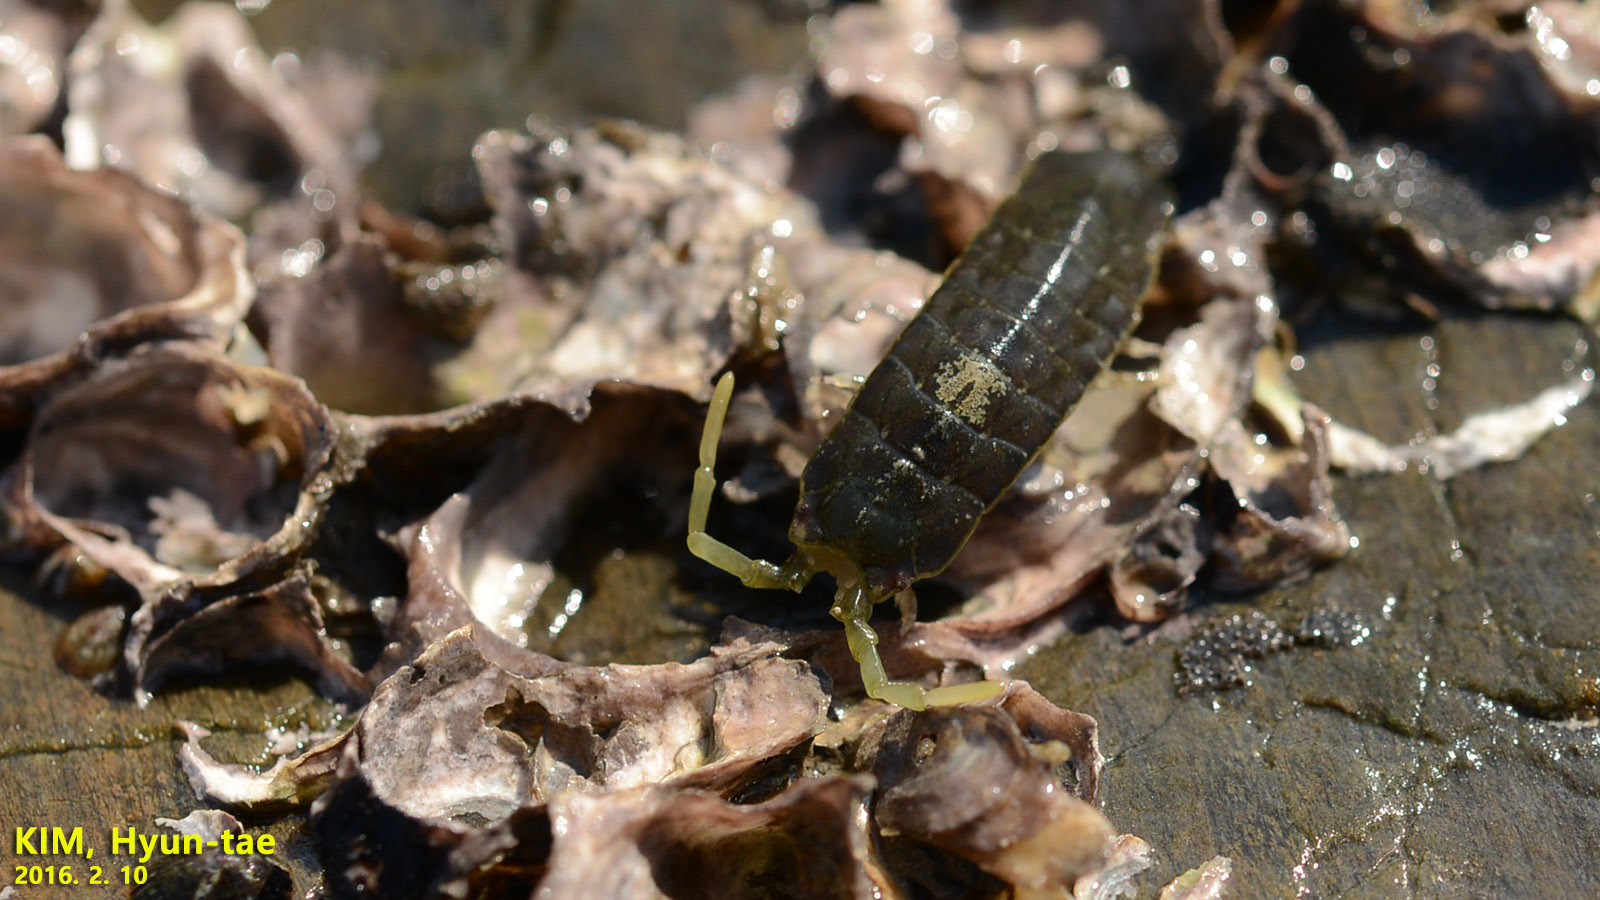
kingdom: Animalia
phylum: Arthropoda
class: Malacostraca
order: Isopoda
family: Idoteidae
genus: Cleantiella
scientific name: Cleantiella isopus
